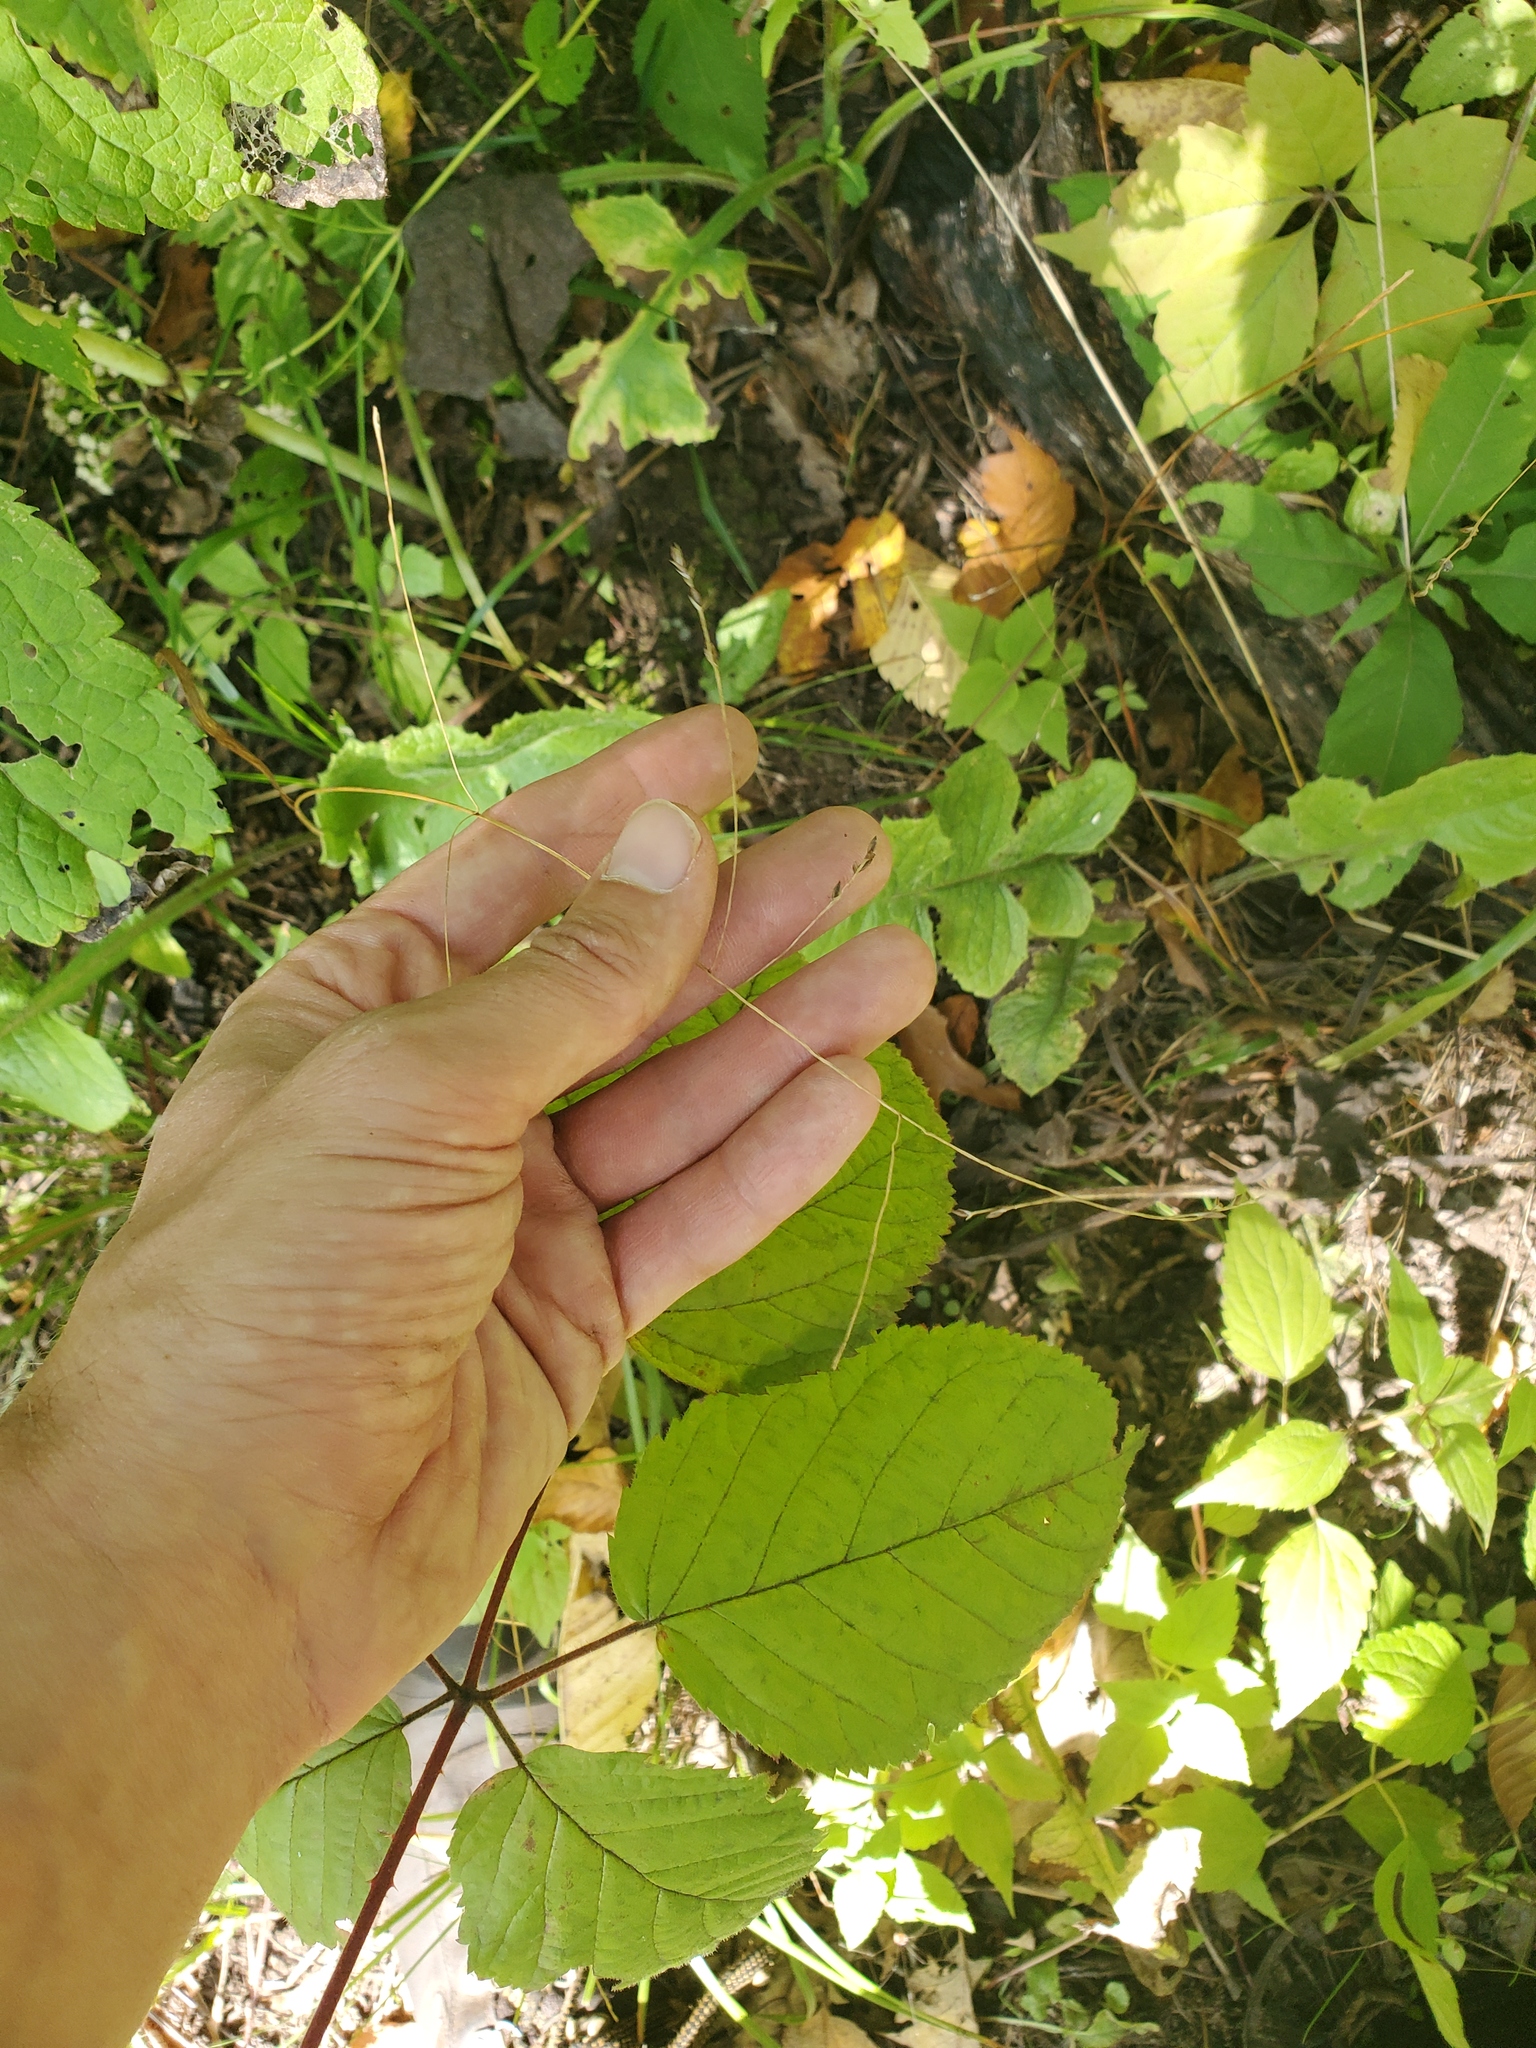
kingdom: Plantae
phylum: Tracheophyta
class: Liliopsida
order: Poales
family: Poaceae
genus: Festuca
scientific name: Festuca subverticillata
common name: Nodding fescue
